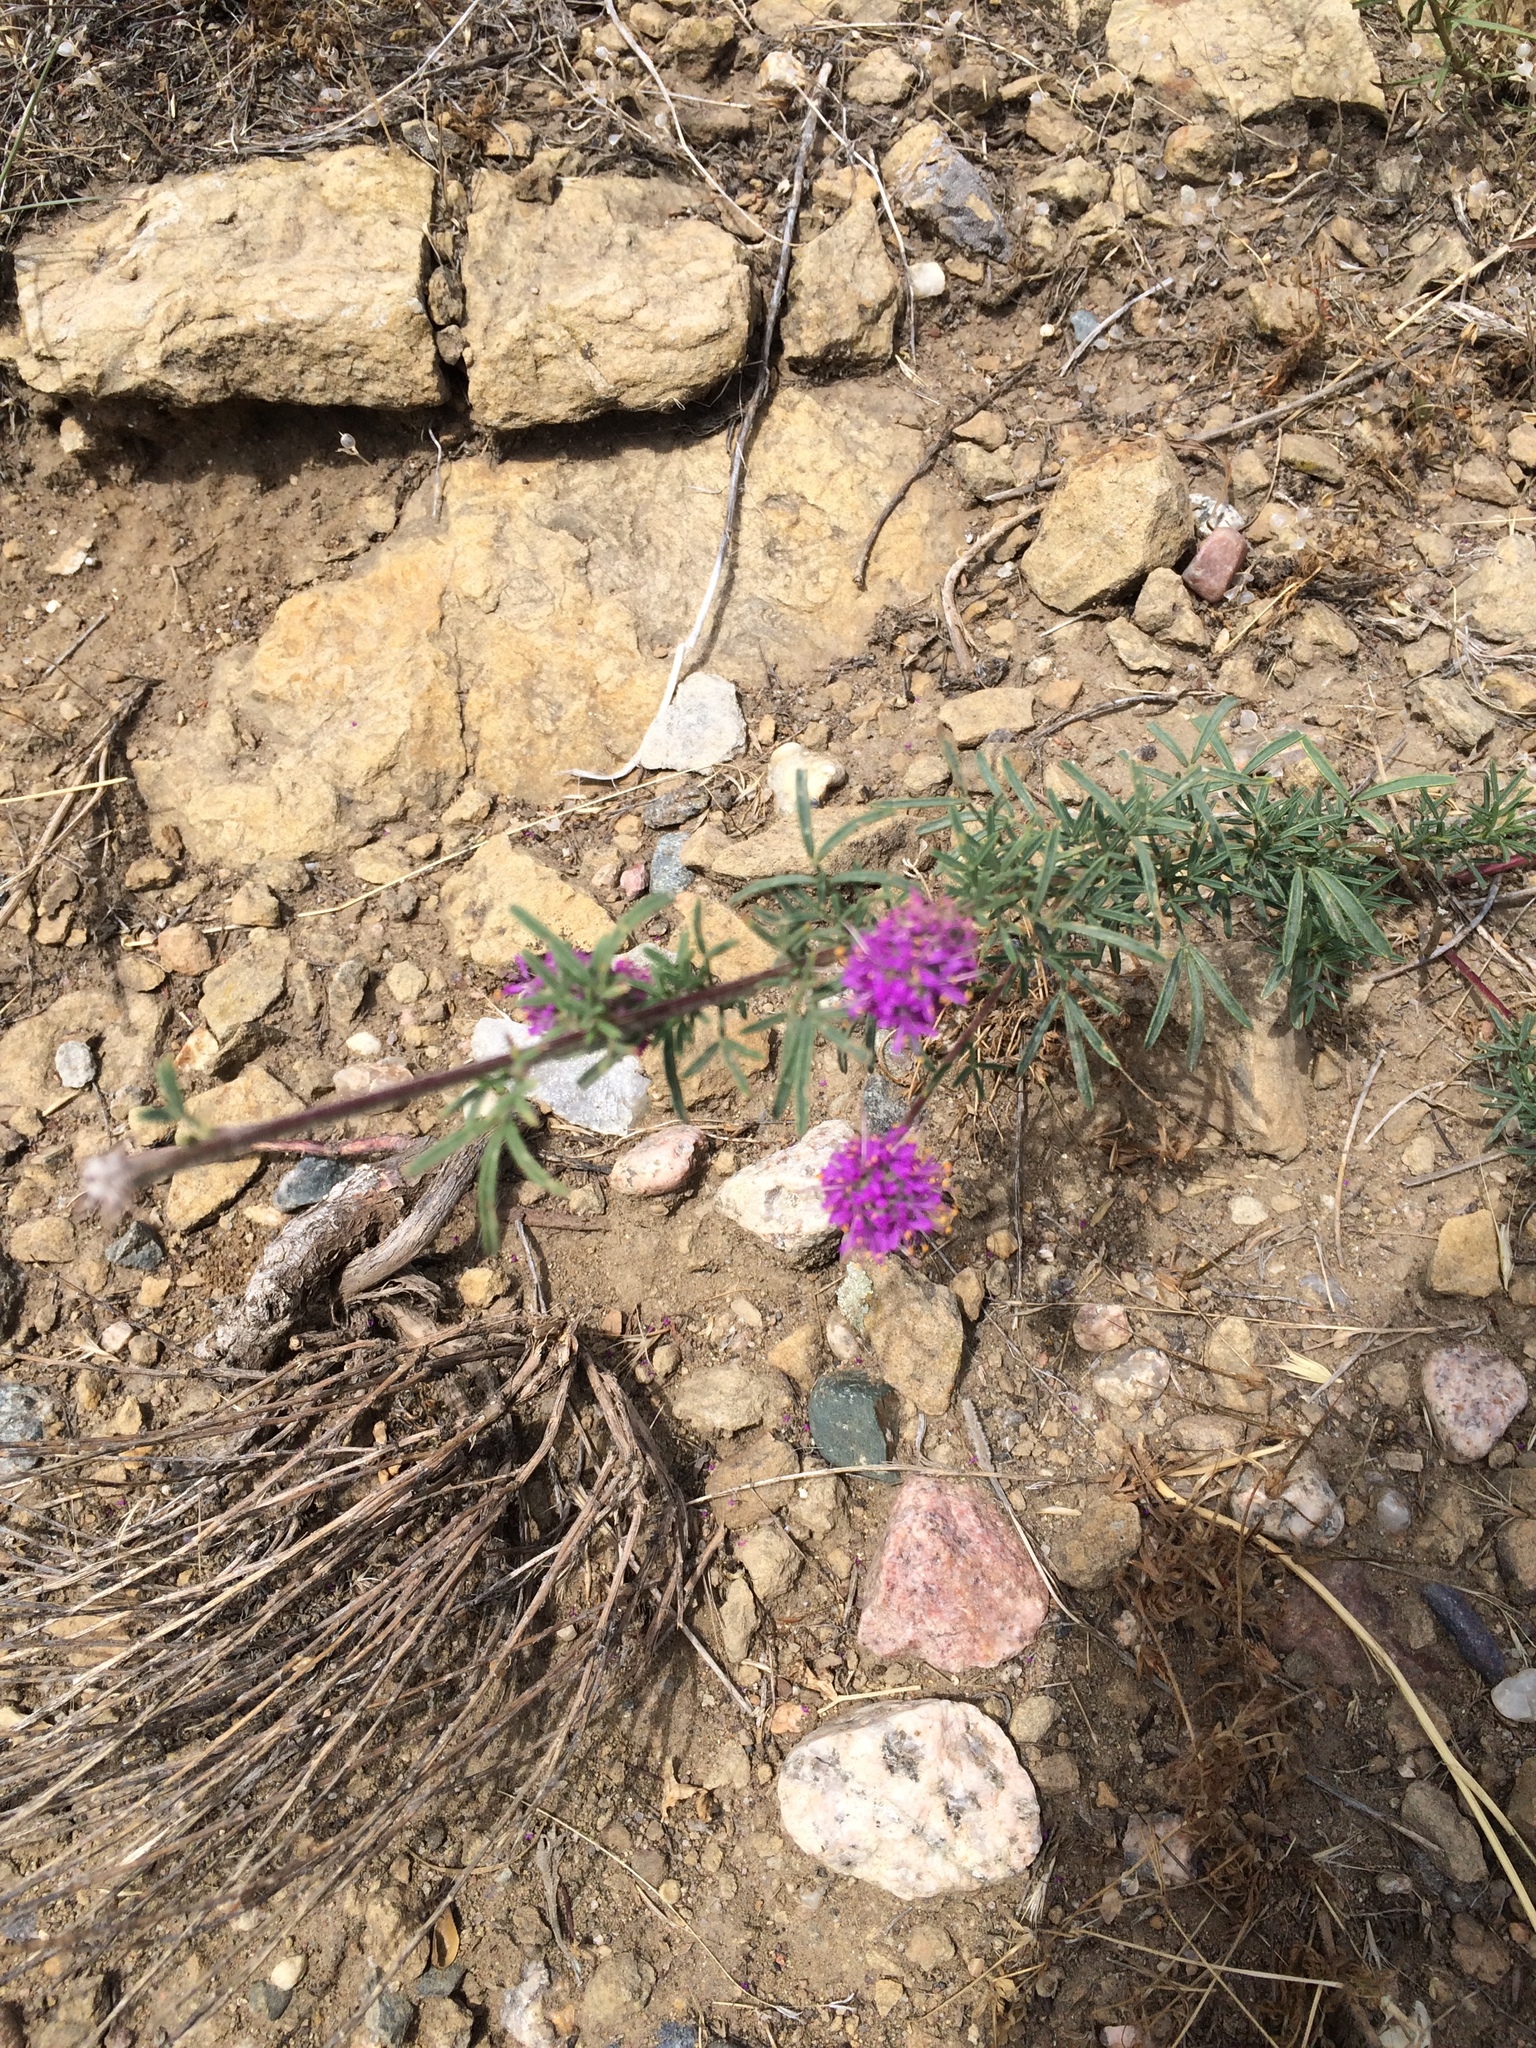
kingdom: Plantae
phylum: Tracheophyta
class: Magnoliopsida
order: Fabales
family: Fabaceae
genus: Dalea
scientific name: Dalea purpurea
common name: Purple prairie-clover
